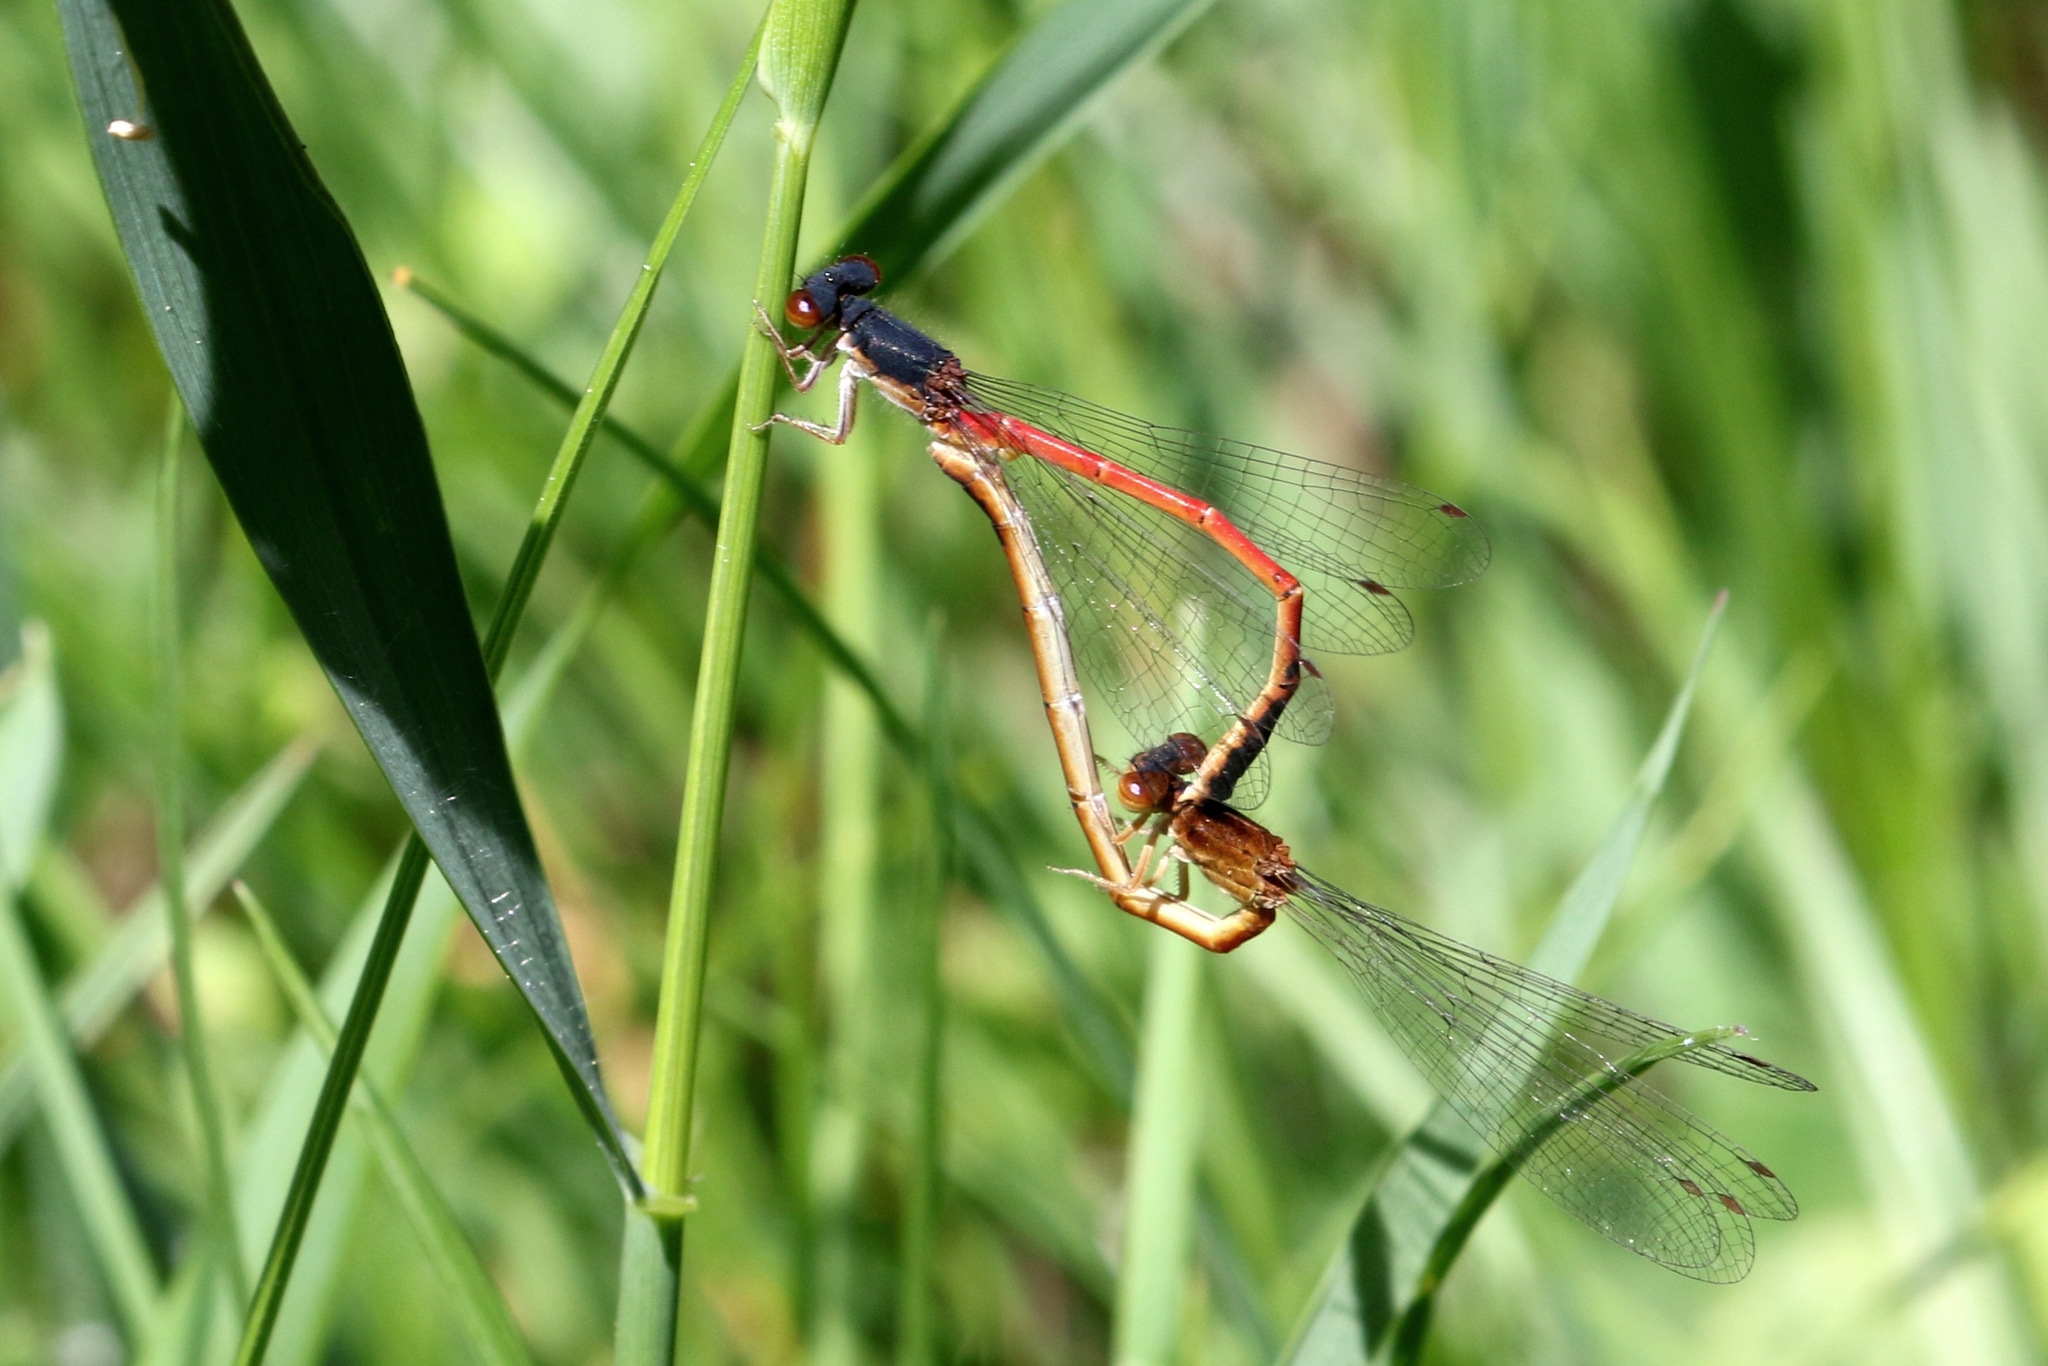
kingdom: Animalia
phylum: Arthropoda
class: Insecta
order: Odonata
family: Coenagrionidae
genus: Amphiagrion
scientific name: Amphiagrion saucium
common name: Eastern red damsel
